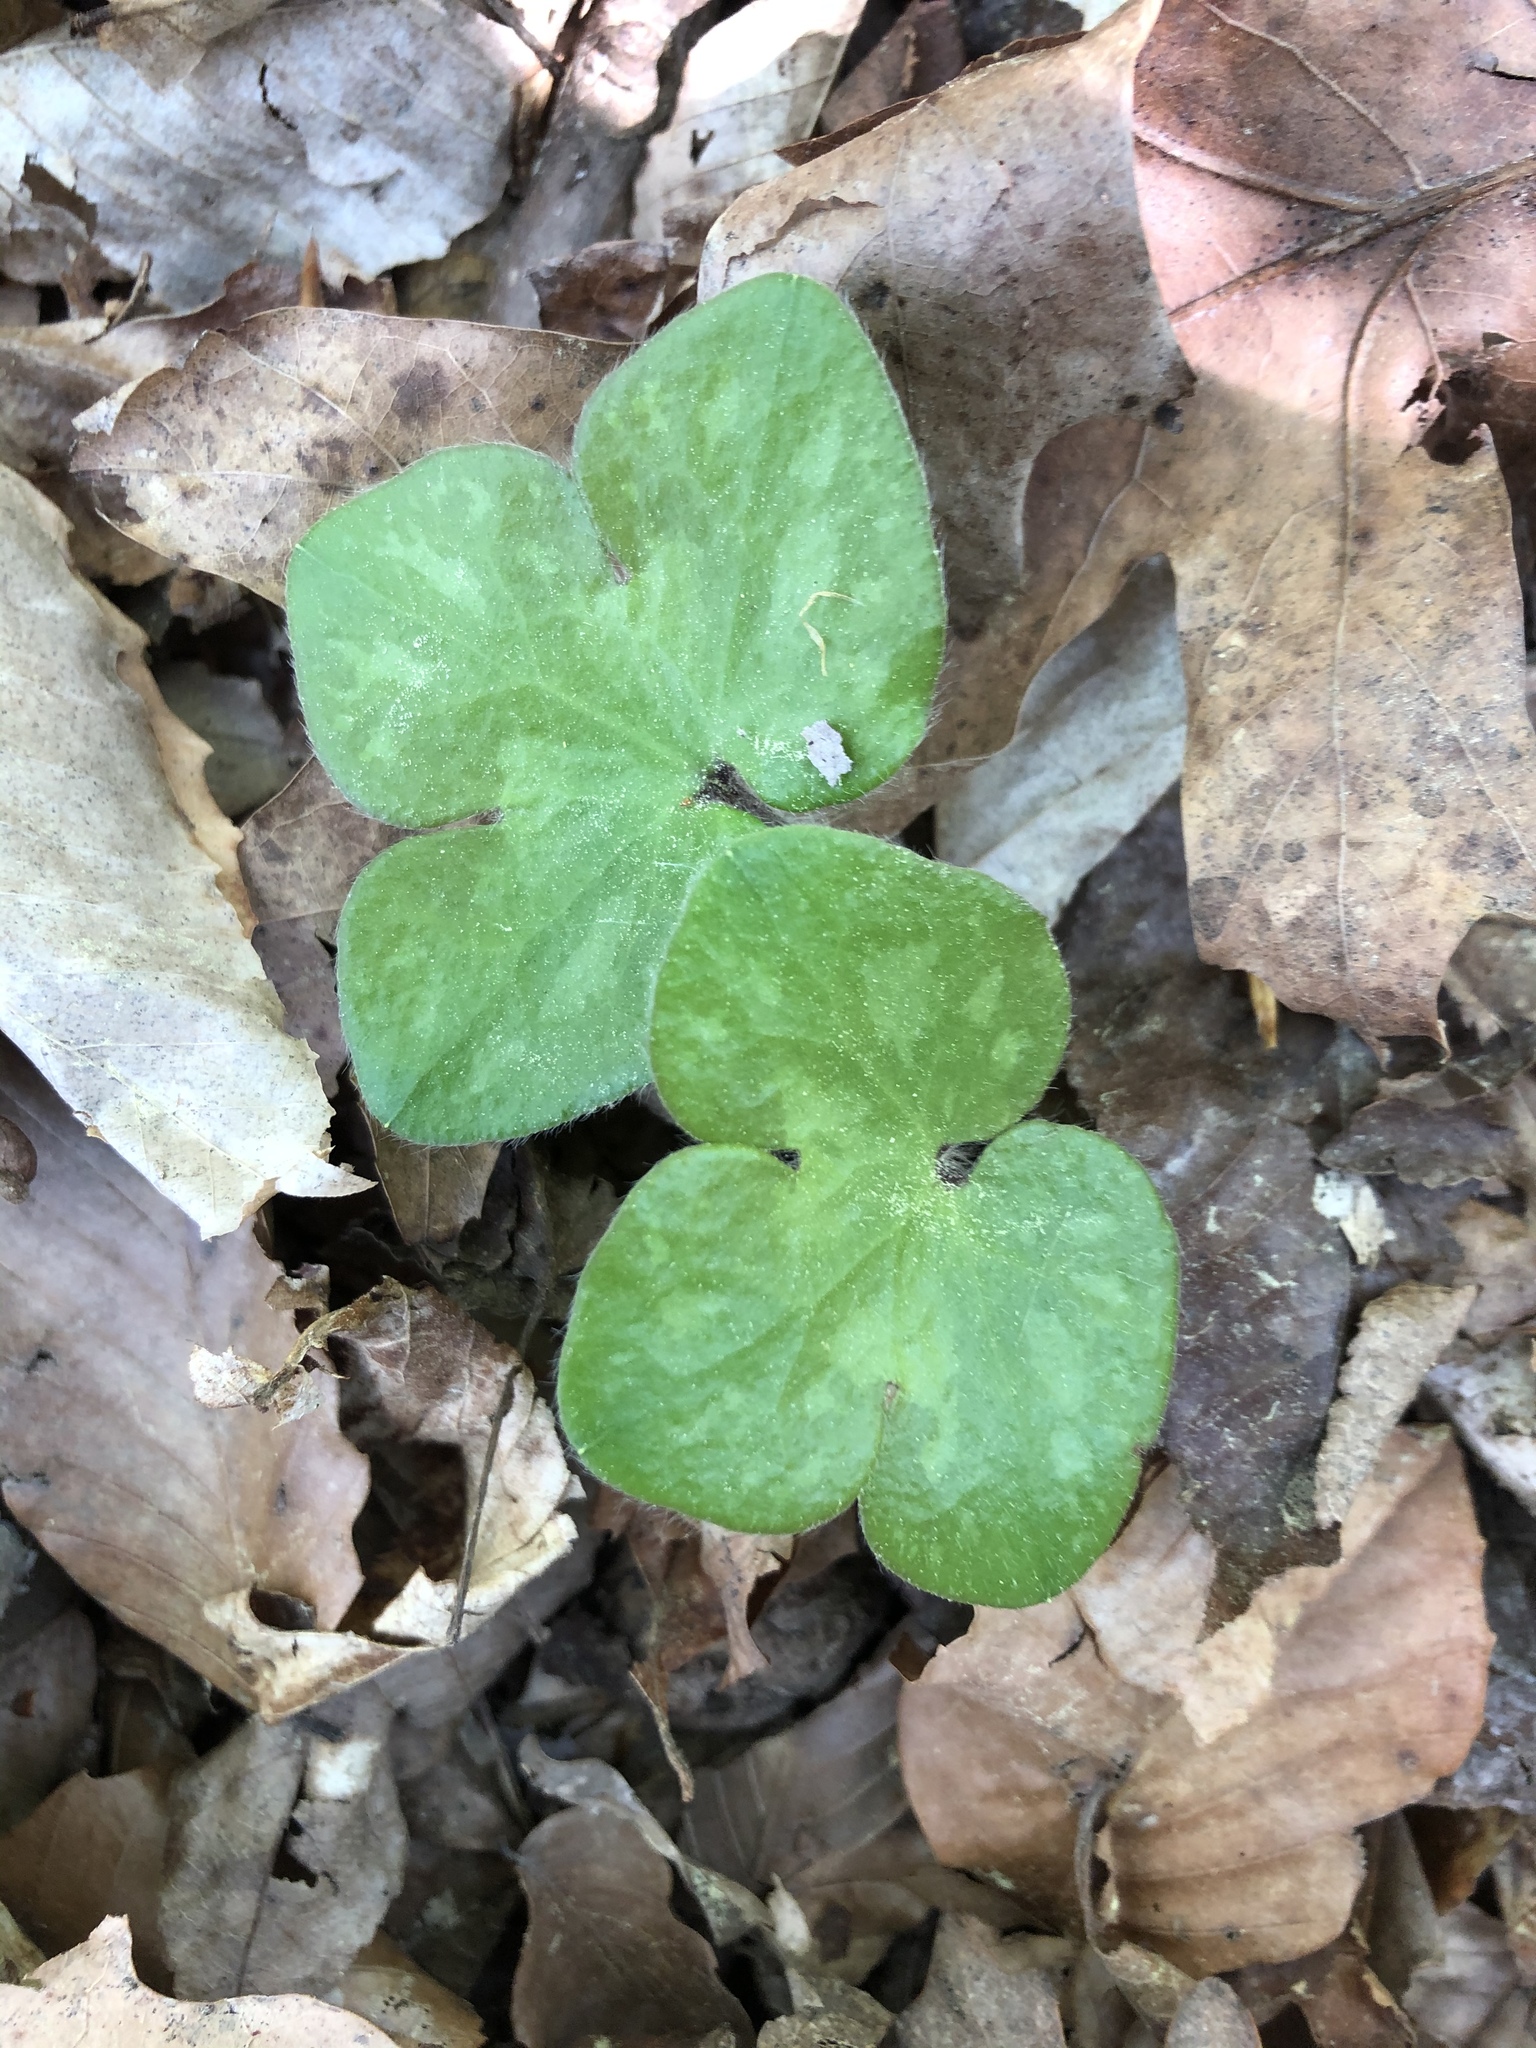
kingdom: Plantae
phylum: Tracheophyta
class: Magnoliopsida
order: Ranunculales
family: Ranunculaceae
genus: Hepatica
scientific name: Hepatica americana
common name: American hepatica
